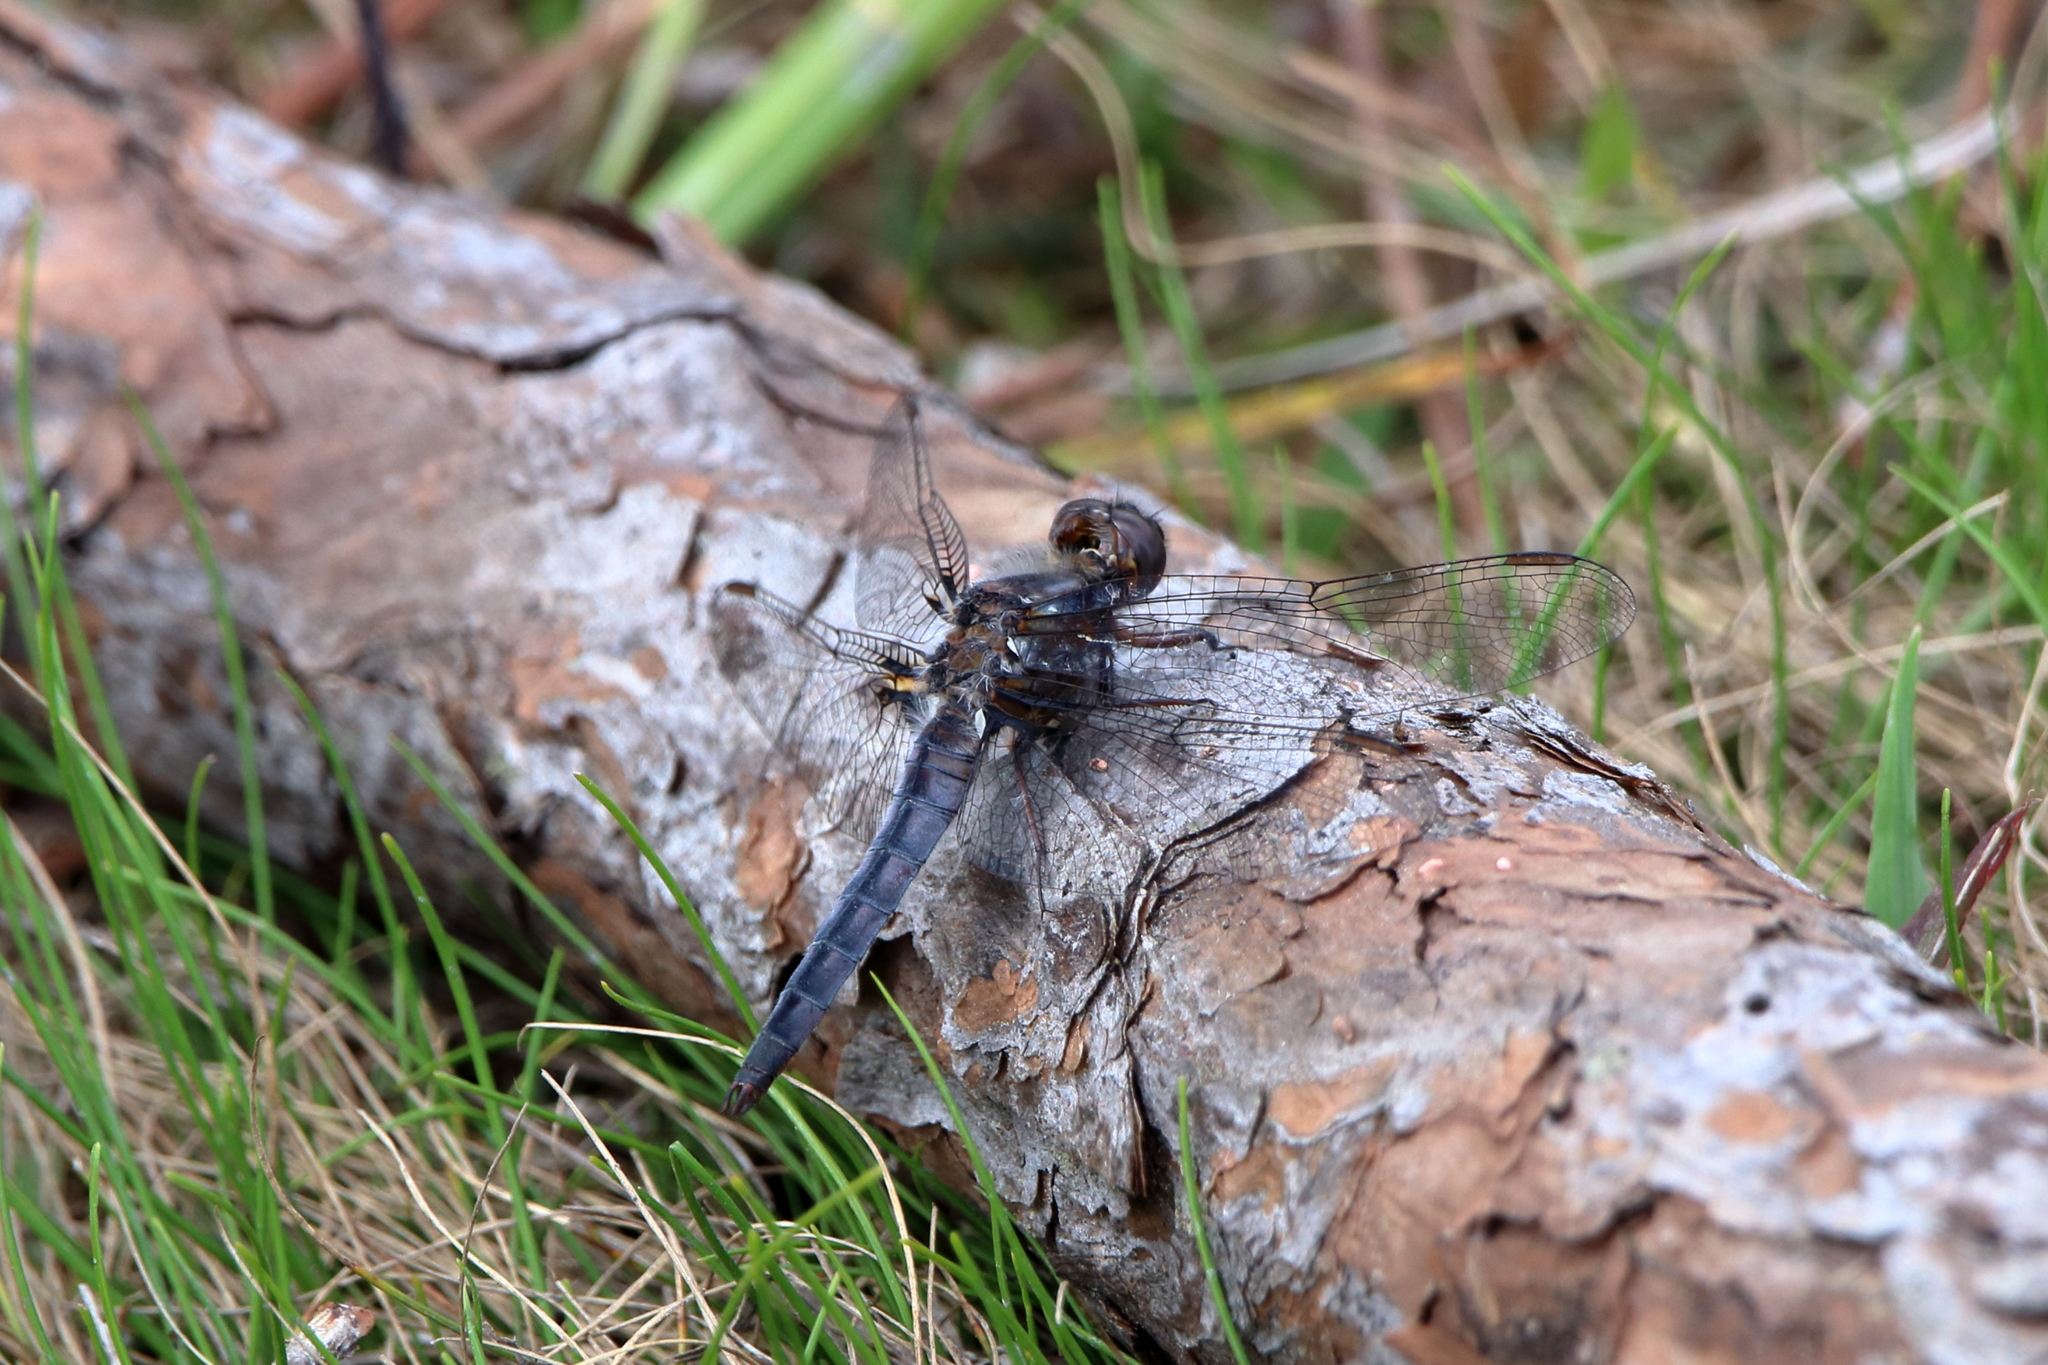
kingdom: Animalia
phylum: Arthropoda
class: Insecta
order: Odonata
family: Libellulidae
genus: Ladona
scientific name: Ladona deplanata
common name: Blue corporal
